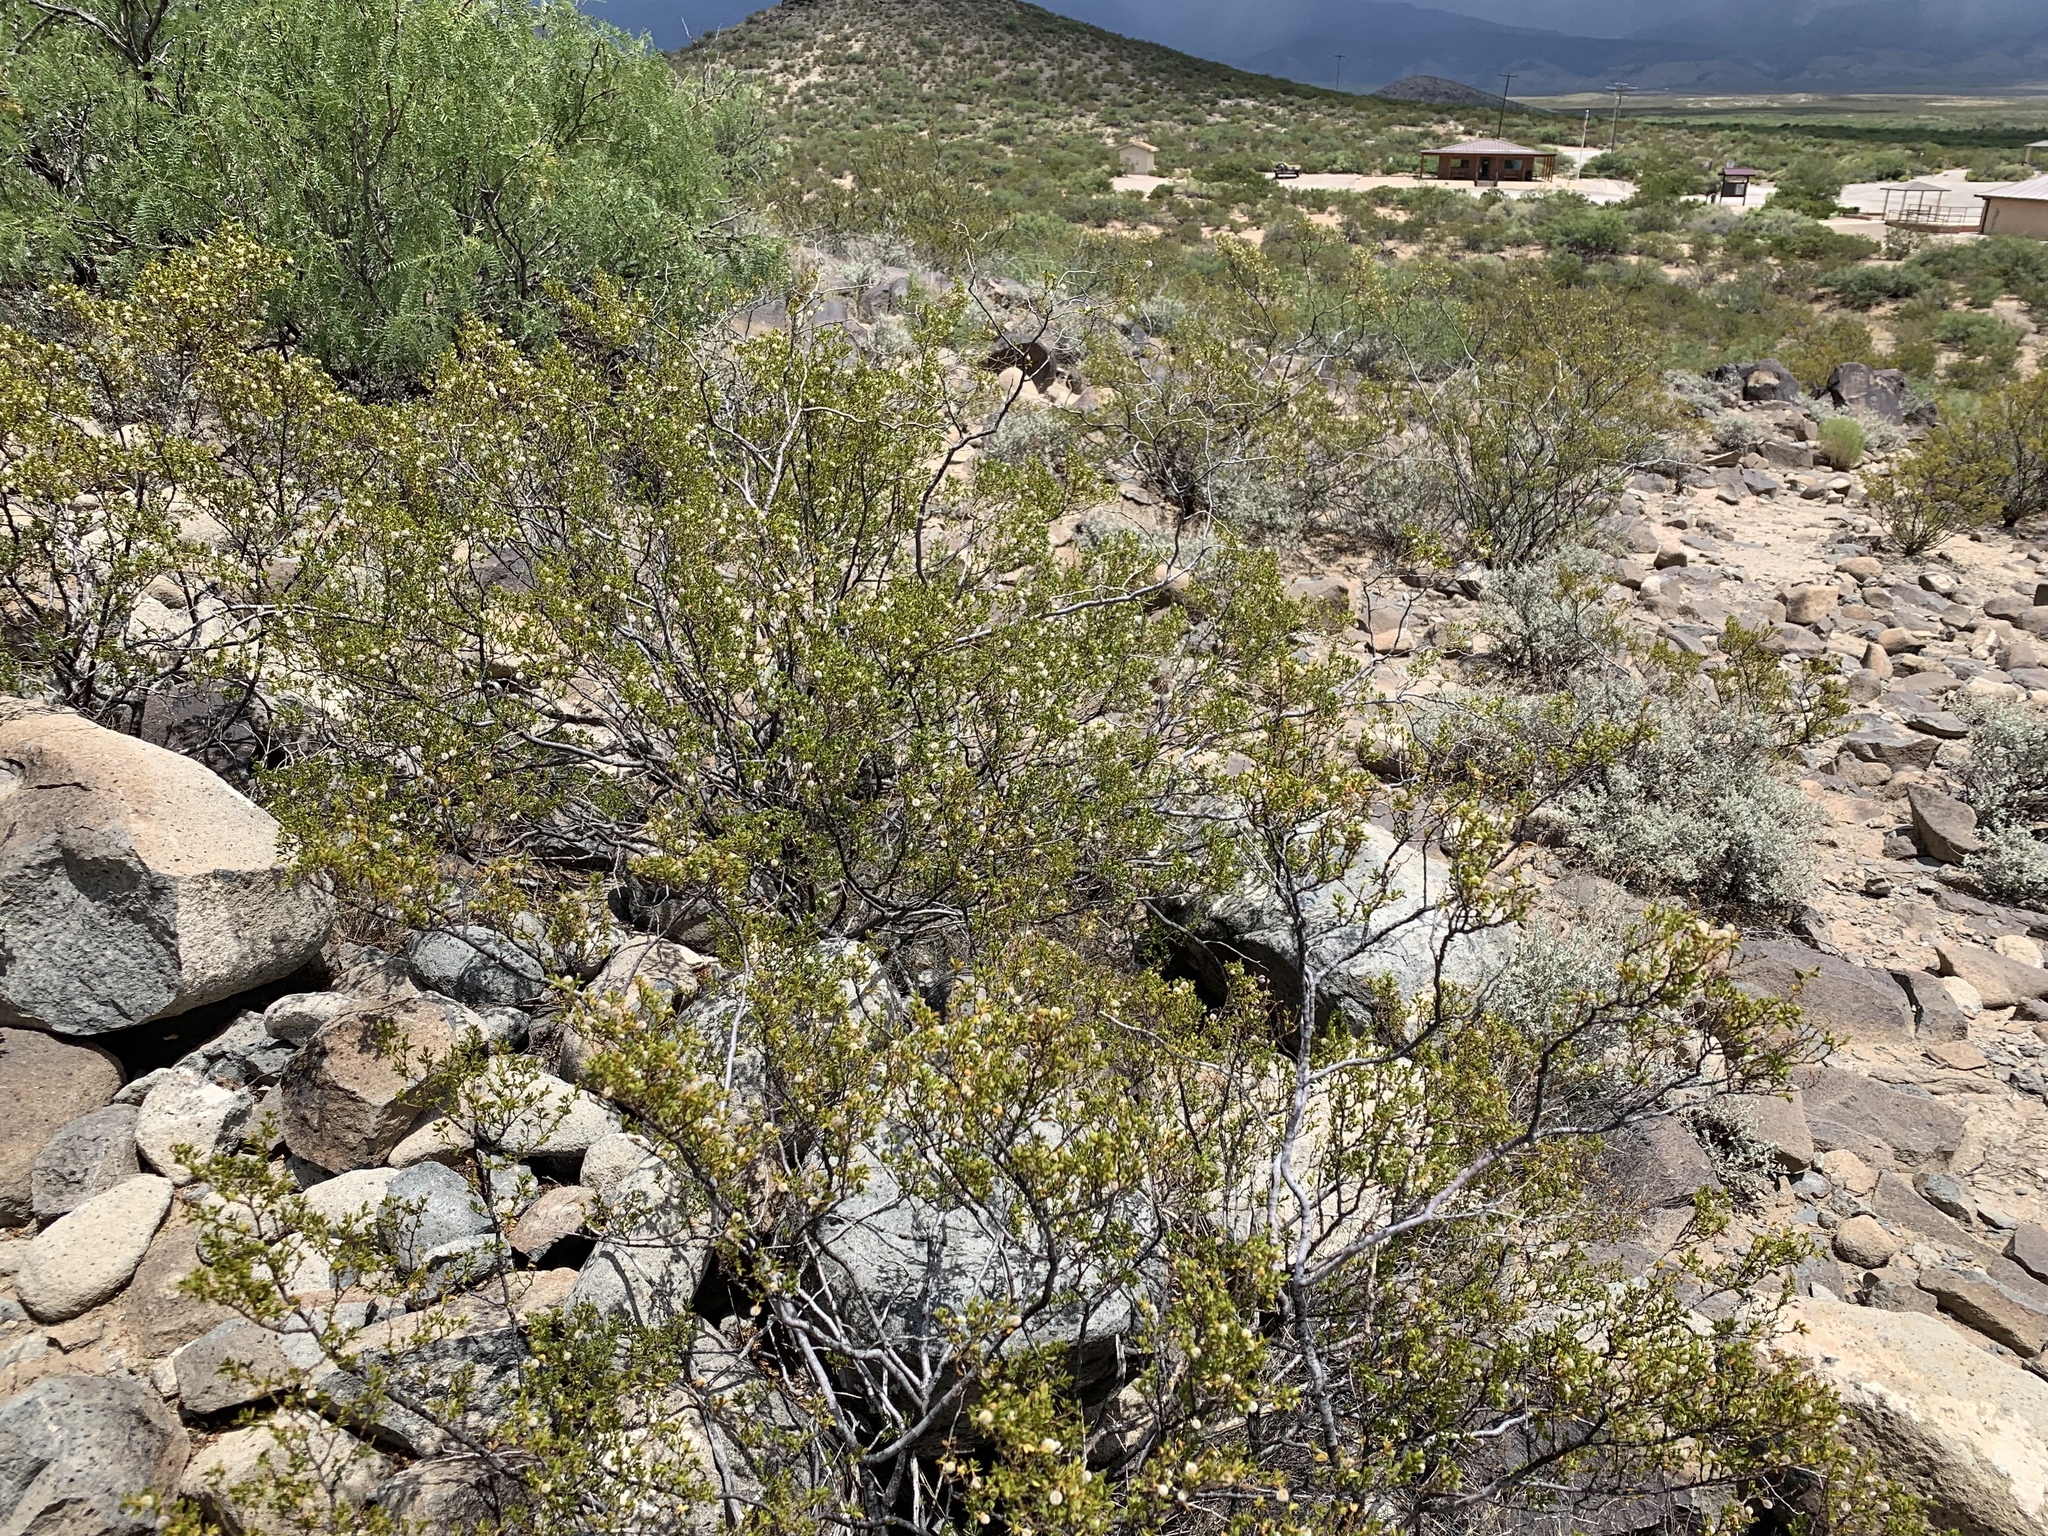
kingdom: Plantae
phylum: Tracheophyta
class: Magnoliopsida
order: Zygophyllales
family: Zygophyllaceae
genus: Larrea
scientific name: Larrea tridentata
